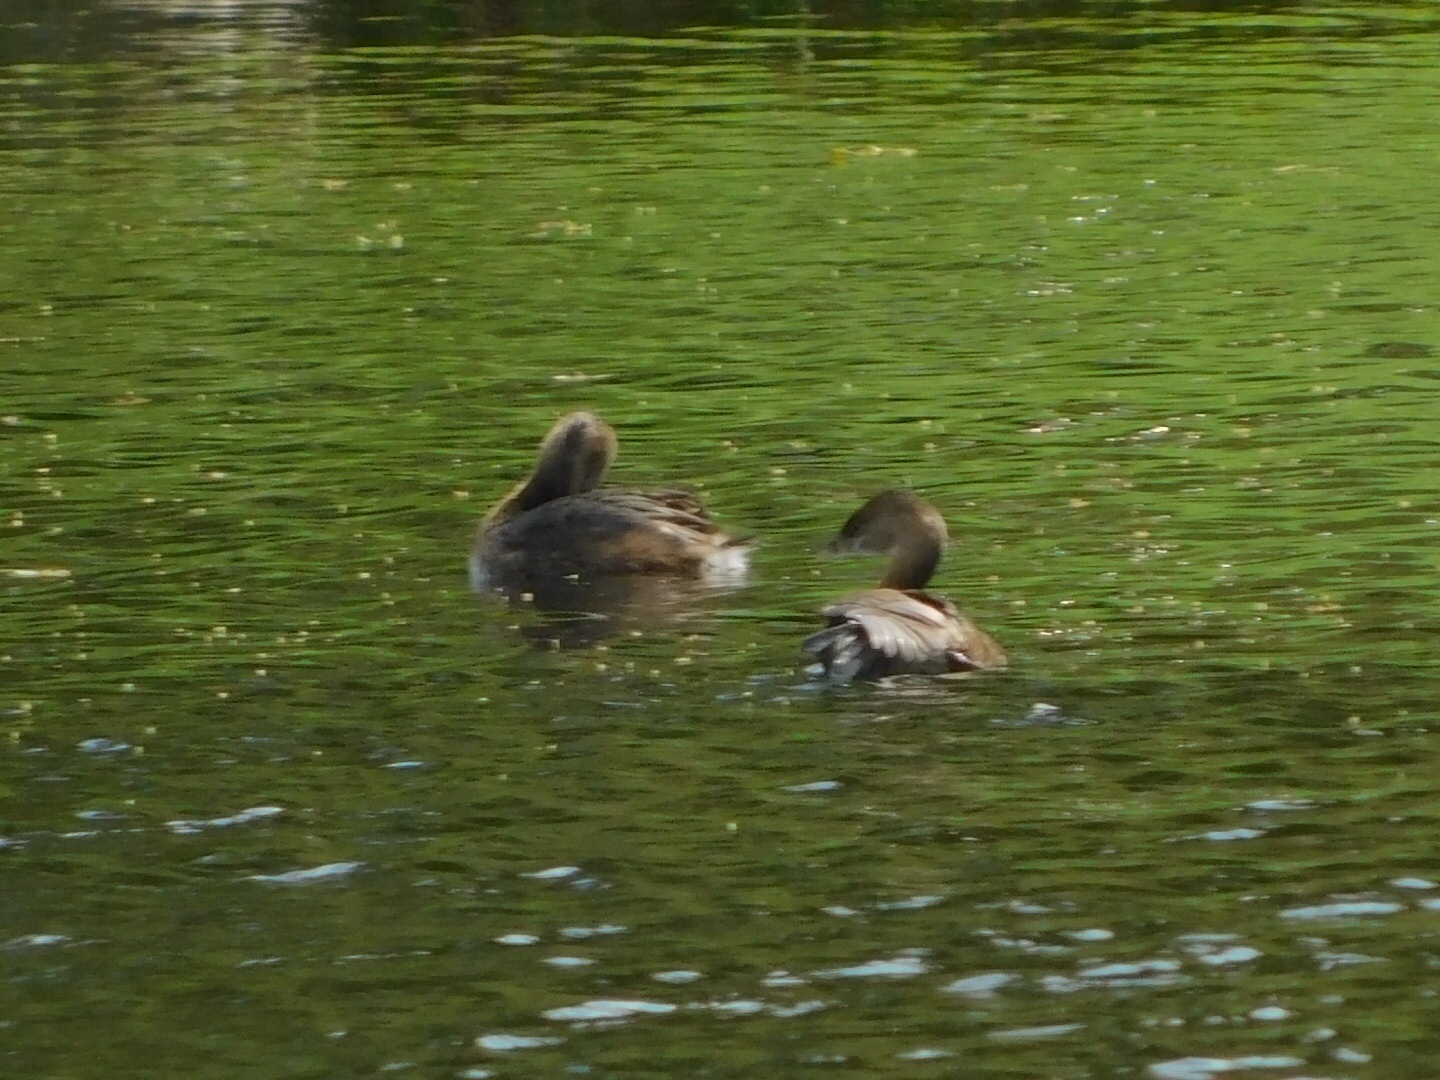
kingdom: Animalia
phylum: Chordata
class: Aves
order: Podicipediformes
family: Podicipedidae
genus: Podilymbus
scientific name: Podilymbus podiceps
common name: Pied-billed grebe
